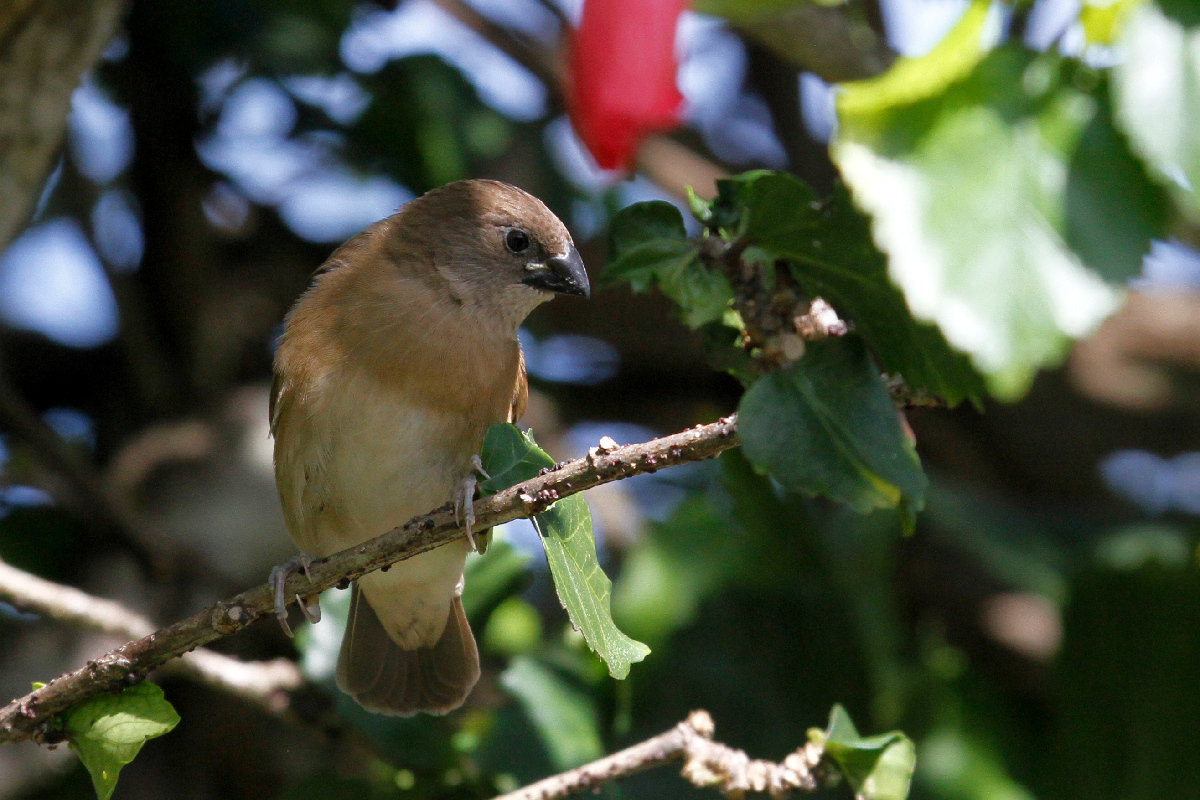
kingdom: Animalia
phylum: Chordata
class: Aves
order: Passeriformes
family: Estrildidae
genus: Euodice
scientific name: Euodice cantans
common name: African silverbill
